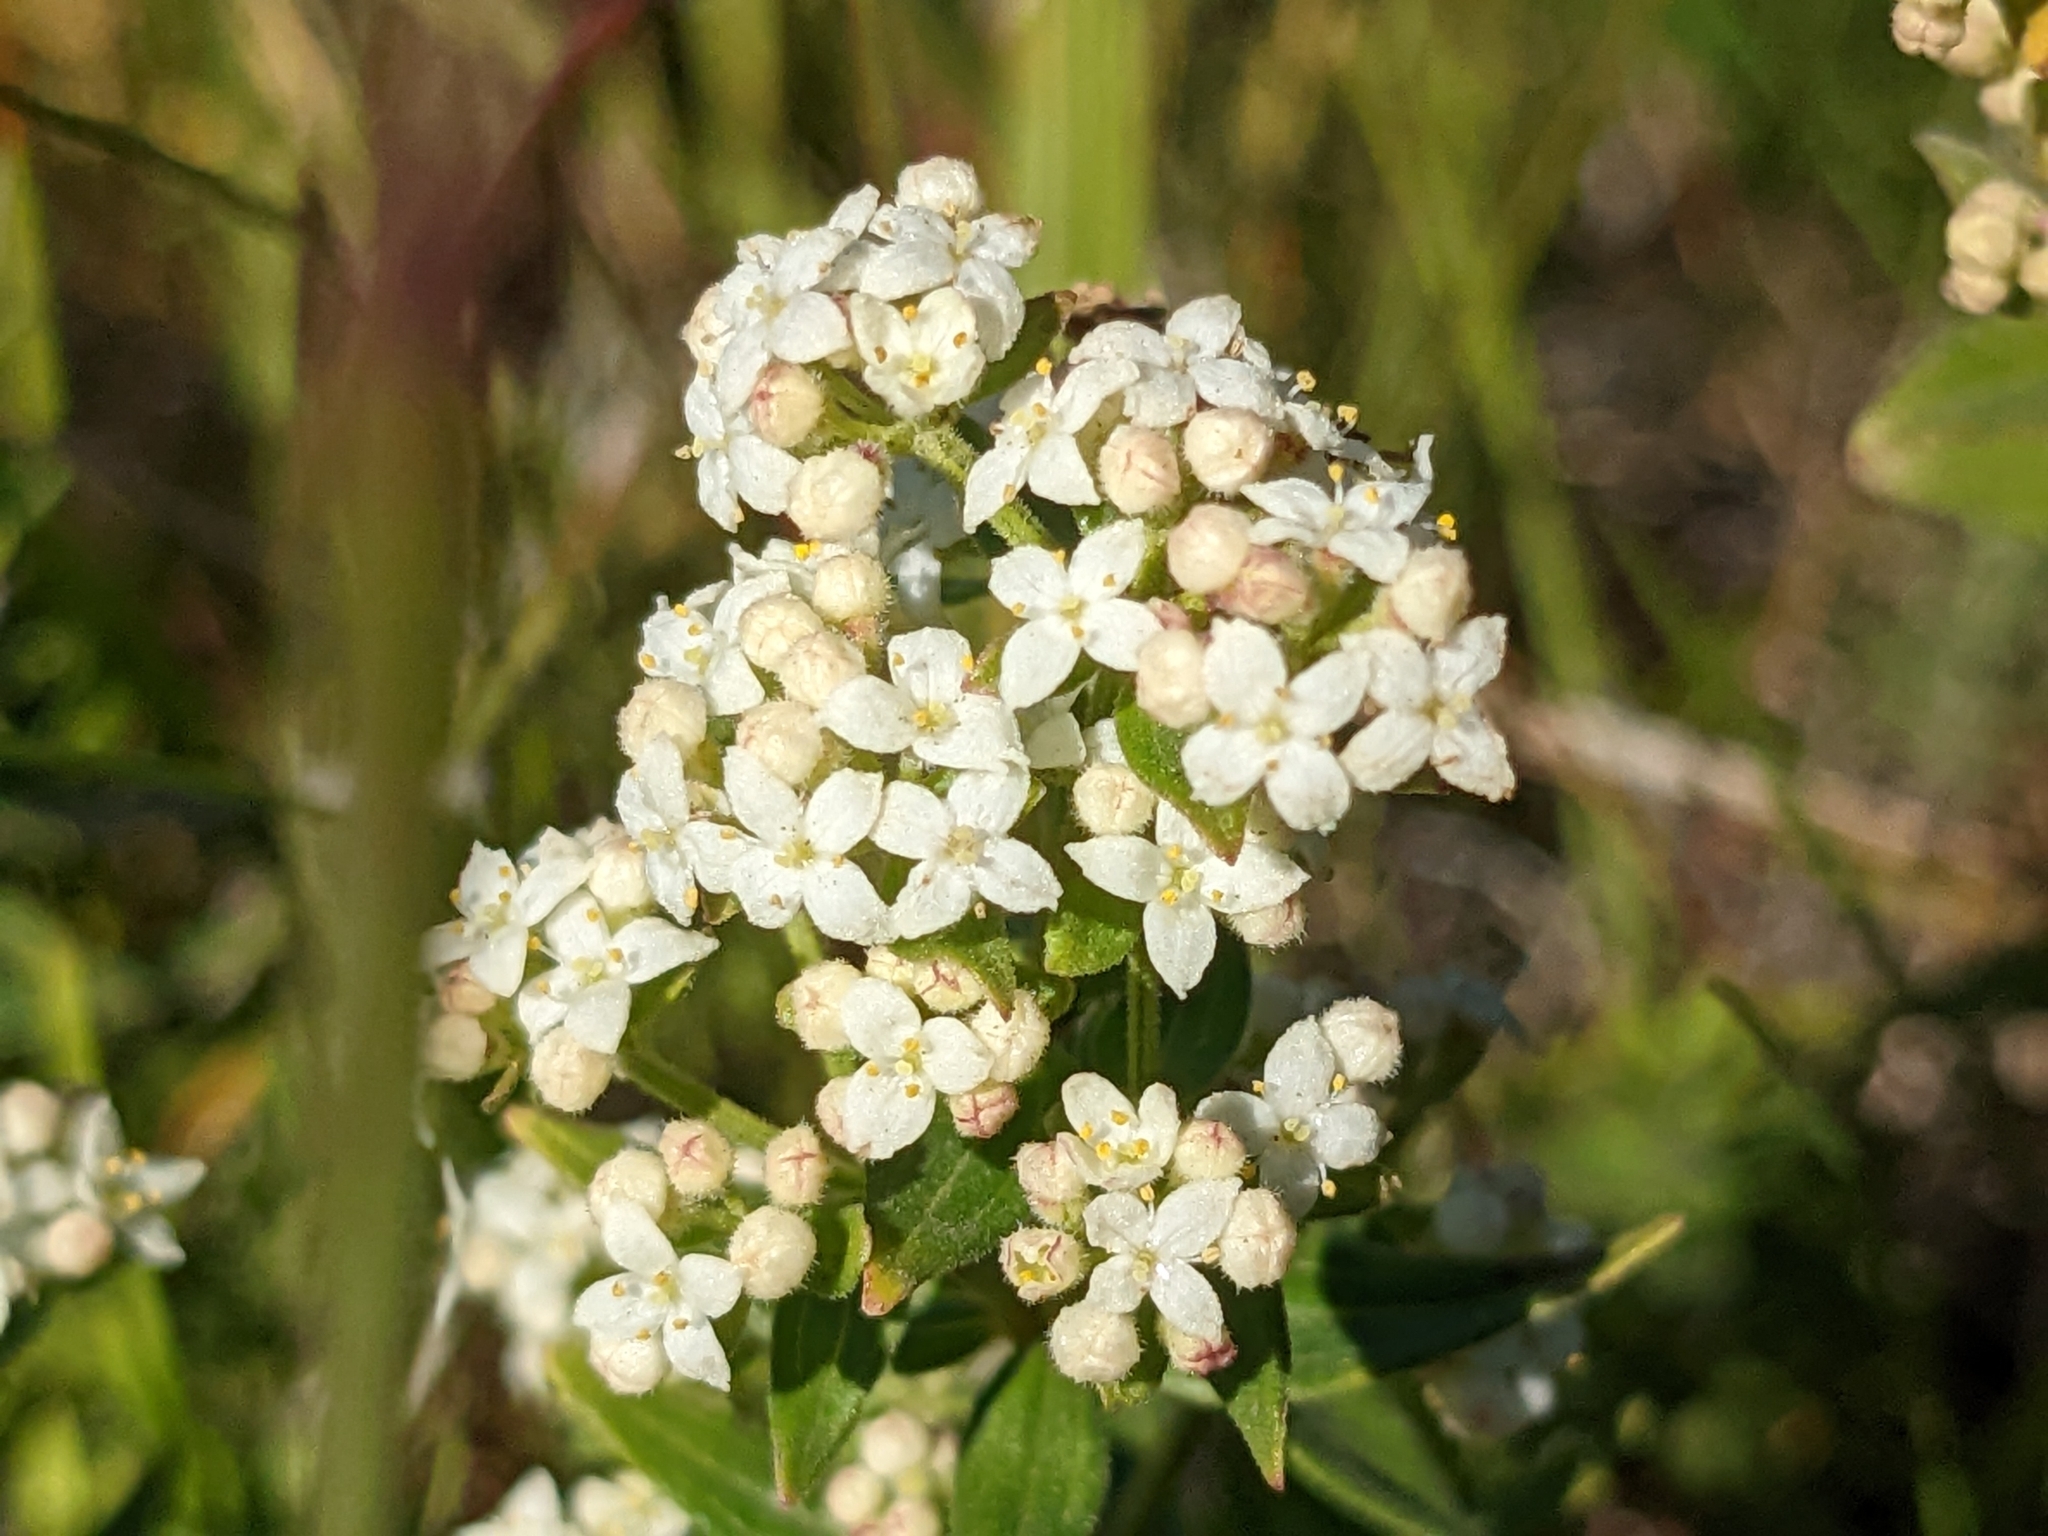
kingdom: Plantae
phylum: Tracheophyta
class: Magnoliopsida
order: Gentianales
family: Rubiaceae
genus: Galium
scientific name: Galium boreale
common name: Northern bedstraw
